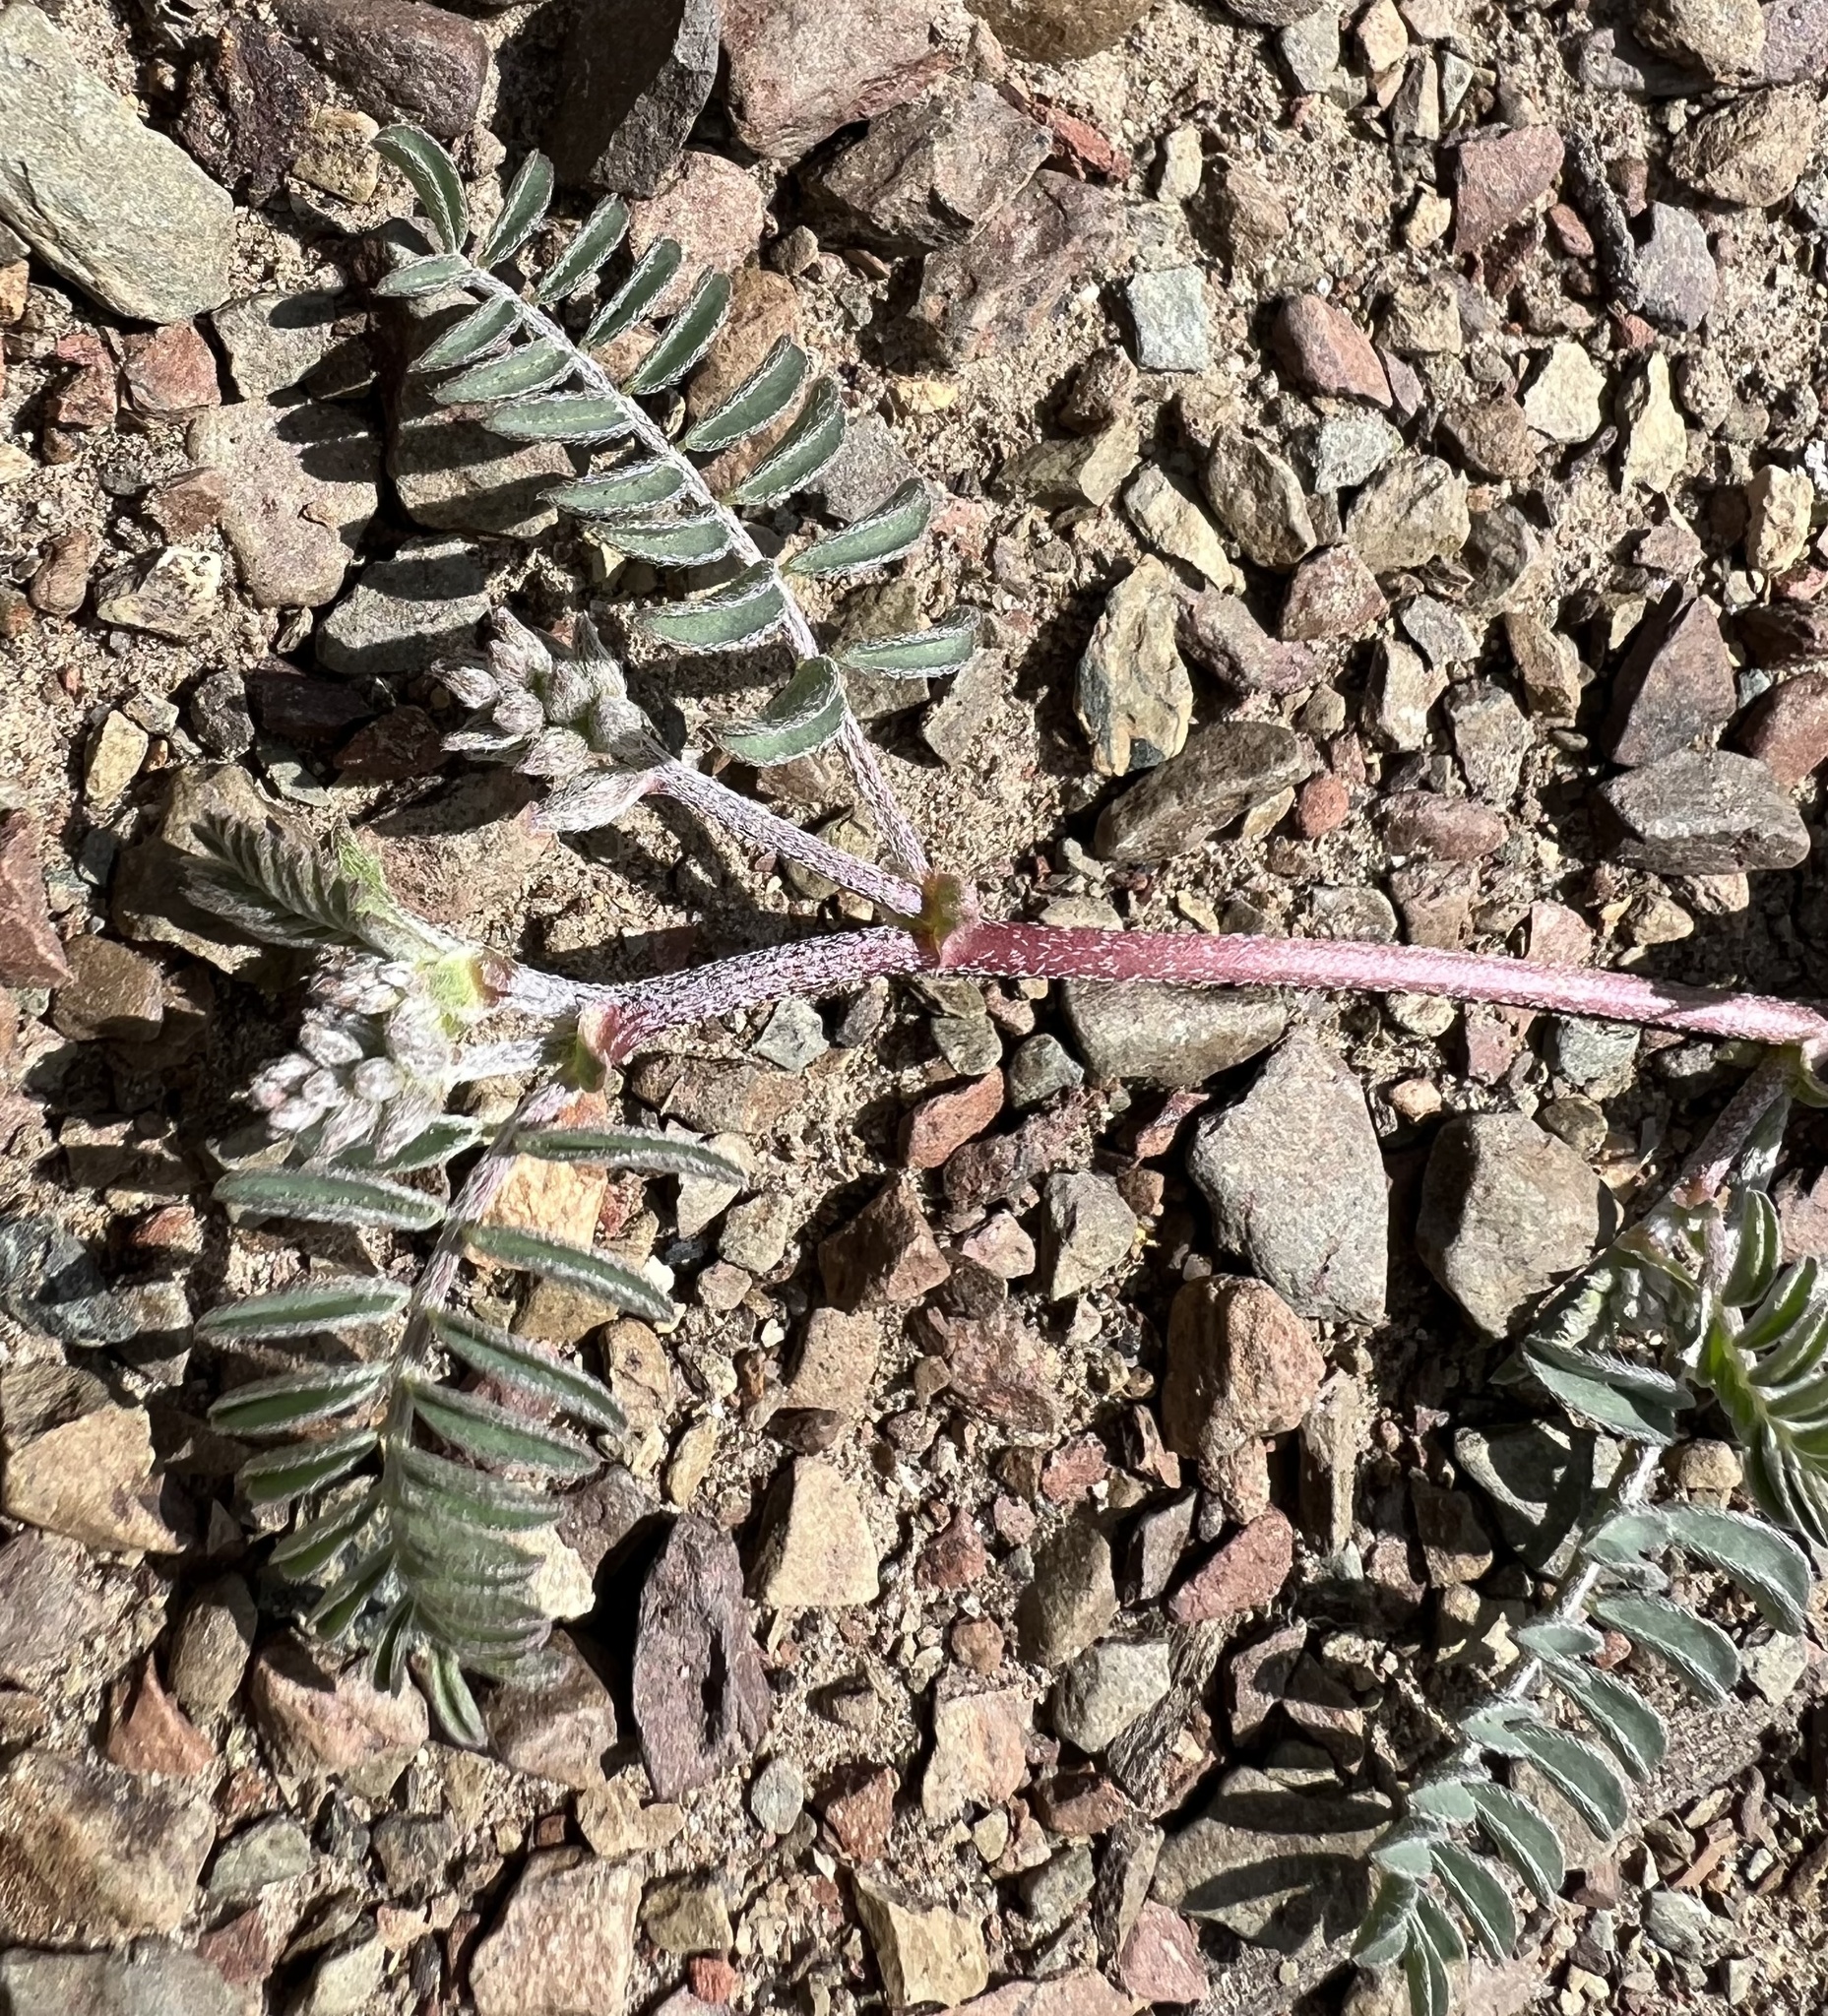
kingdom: Plantae
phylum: Tracheophyta
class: Magnoliopsida
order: Fabales
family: Fabaceae
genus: Astragalus
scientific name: Astragalus inyoensis
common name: Inyo locoweed
